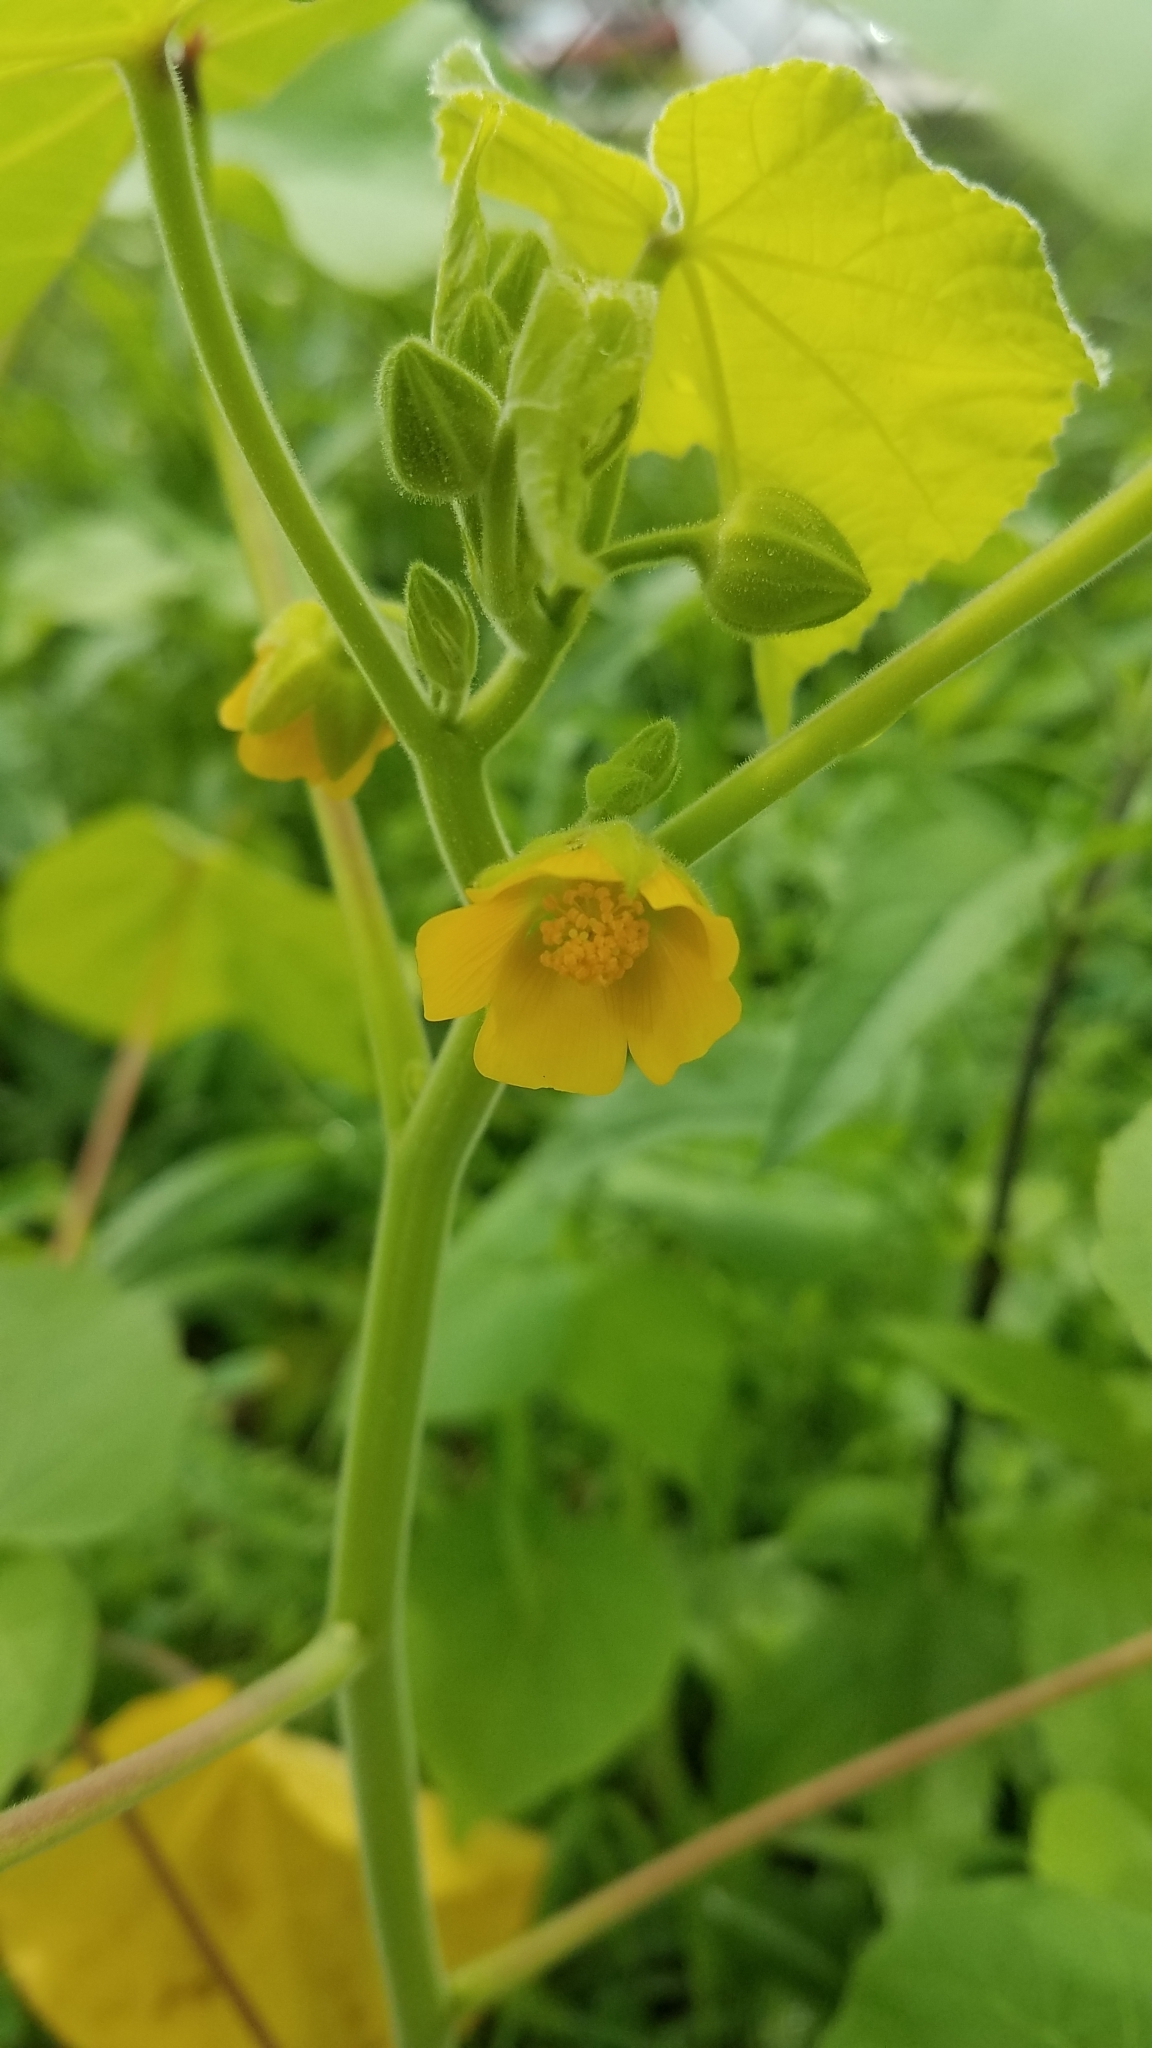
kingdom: Plantae
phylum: Tracheophyta
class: Magnoliopsida
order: Malvales
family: Malvaceae
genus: Abutilon
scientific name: Abutilon theophrasti
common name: Velvetleaf
